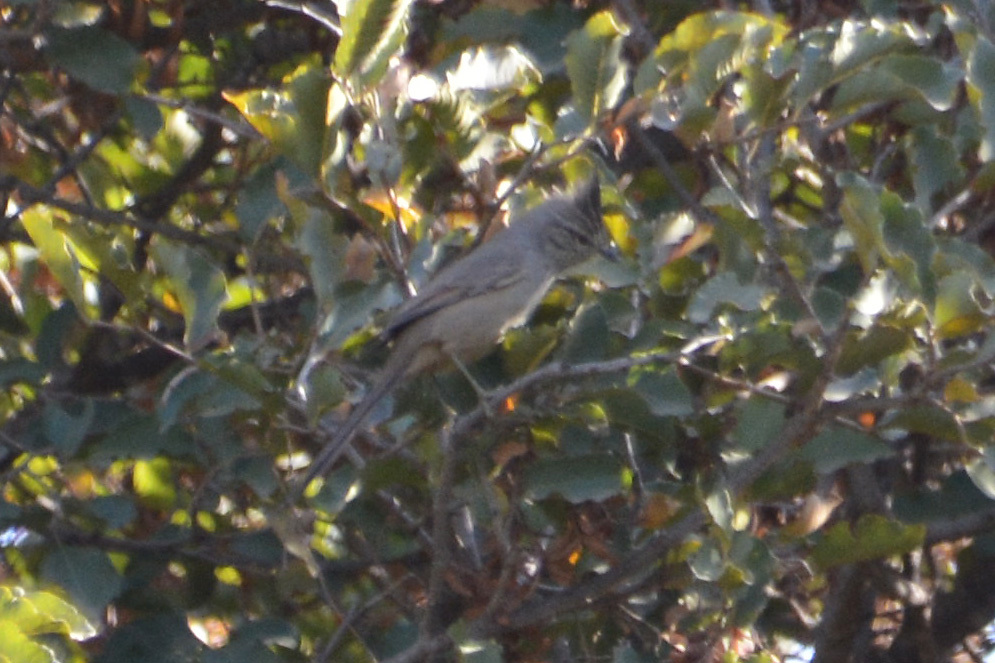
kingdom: Animalia
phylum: Chordata
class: Aves
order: Passeriformes
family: Furnariidae
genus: Leptasthenura
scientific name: Leptasthenura platensis
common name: Tufted tit-spinetail
